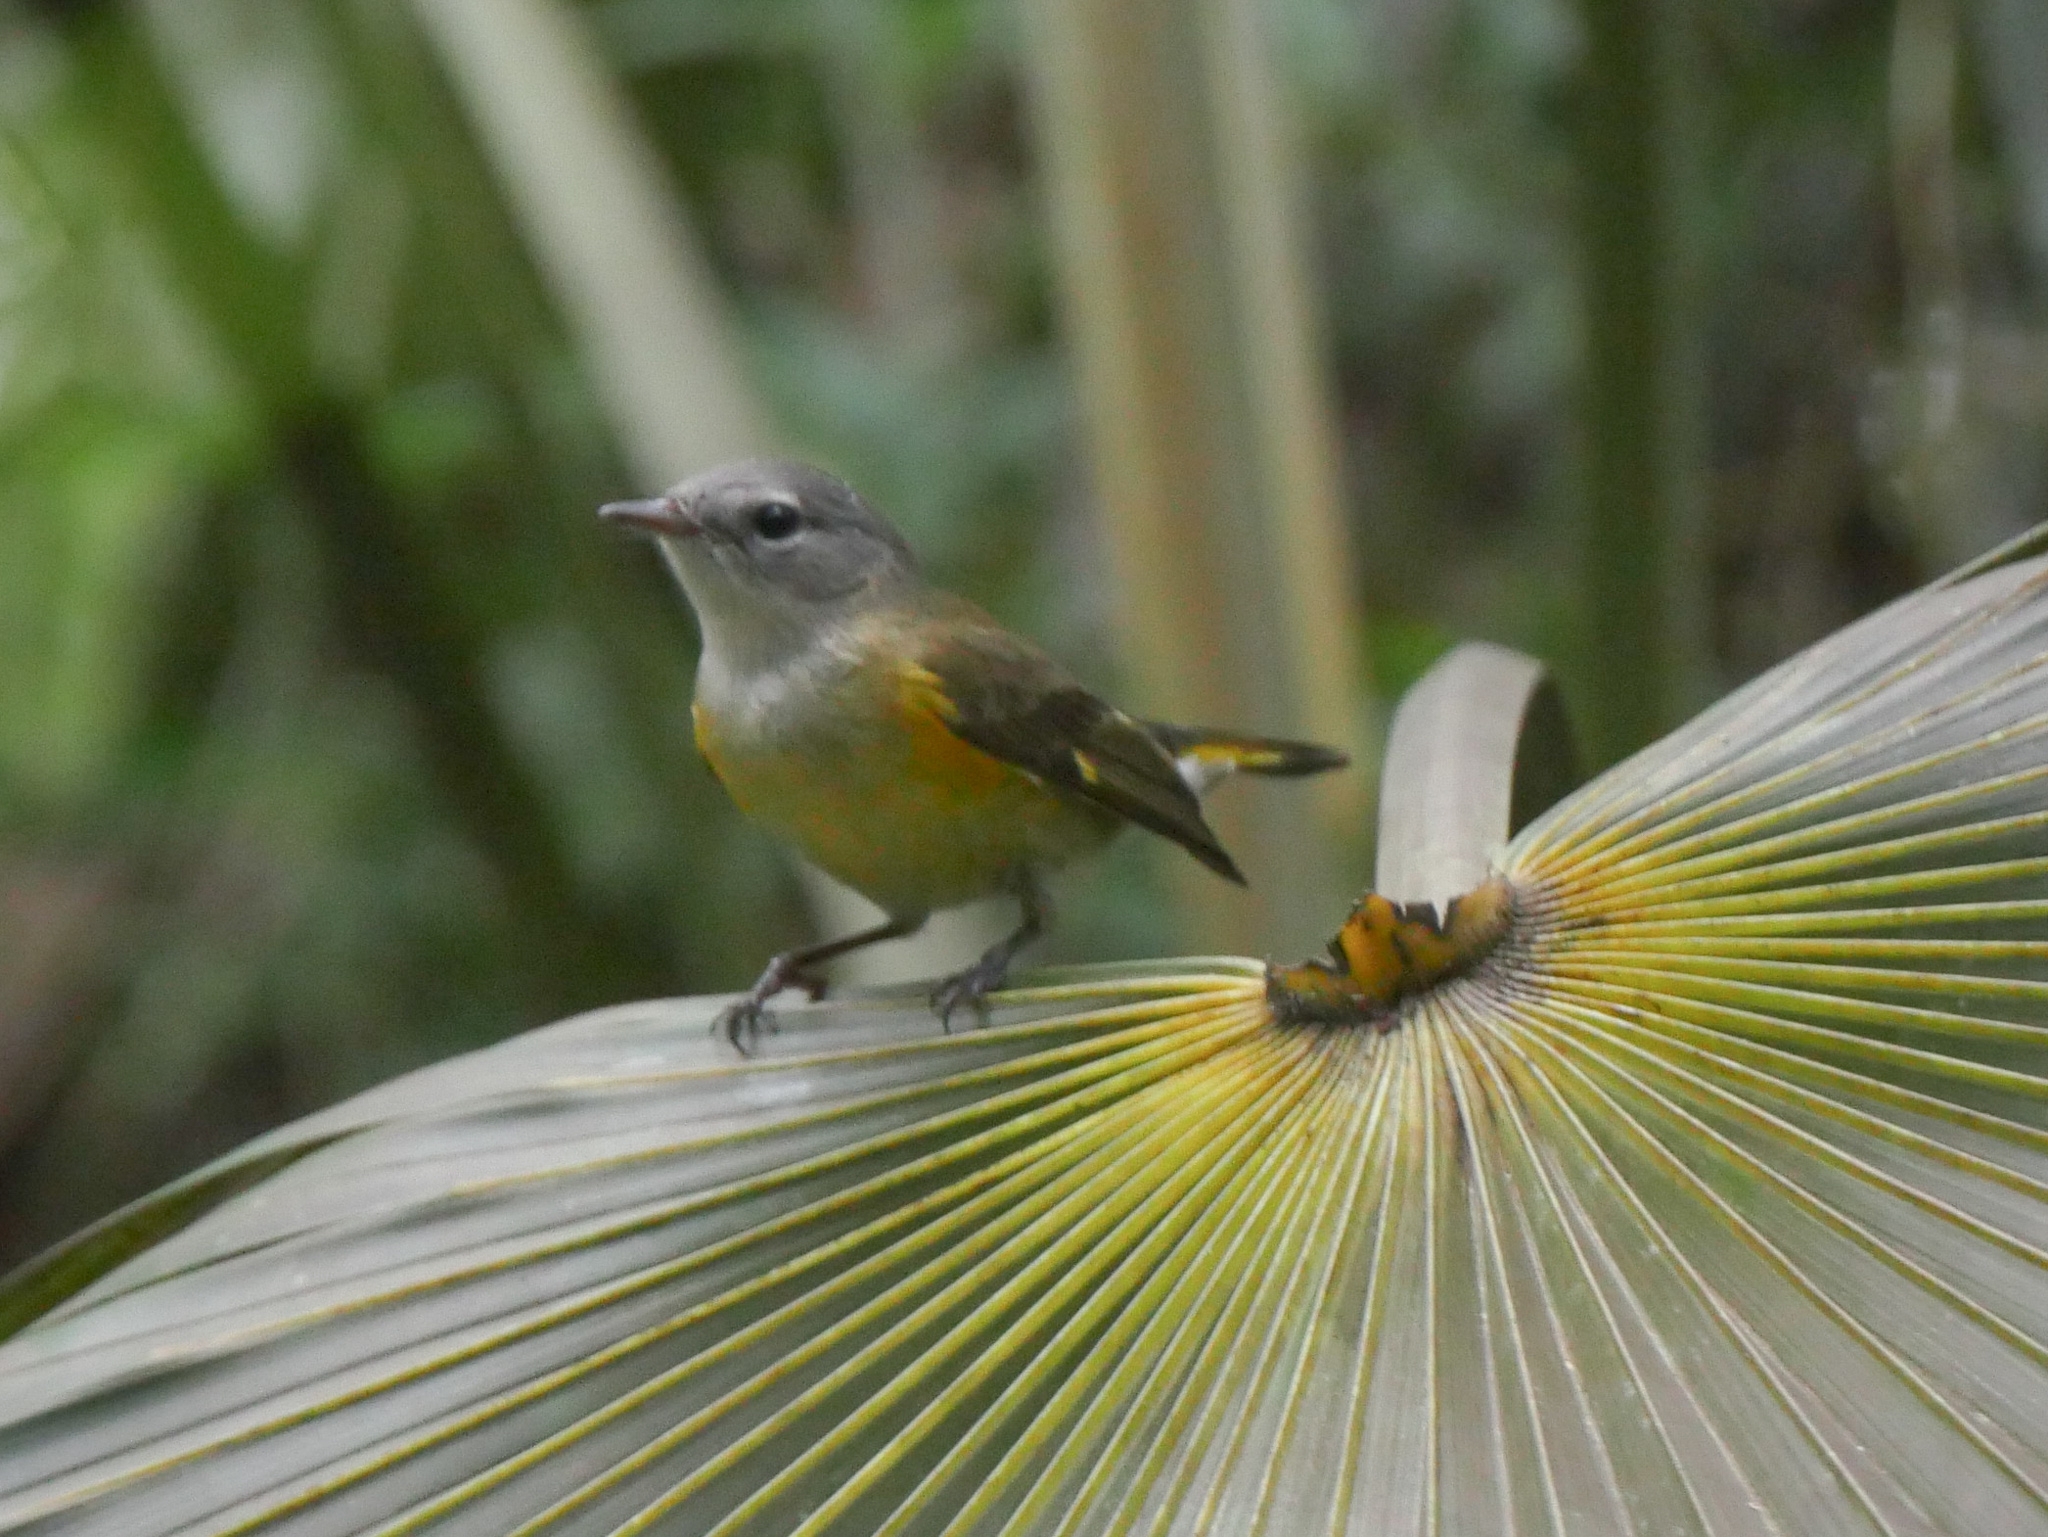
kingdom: Animalia
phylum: Chordata
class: Aves
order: Passeriformes
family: Parulidae
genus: Setophaga
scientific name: Setophaga ruticilla
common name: American redstart
